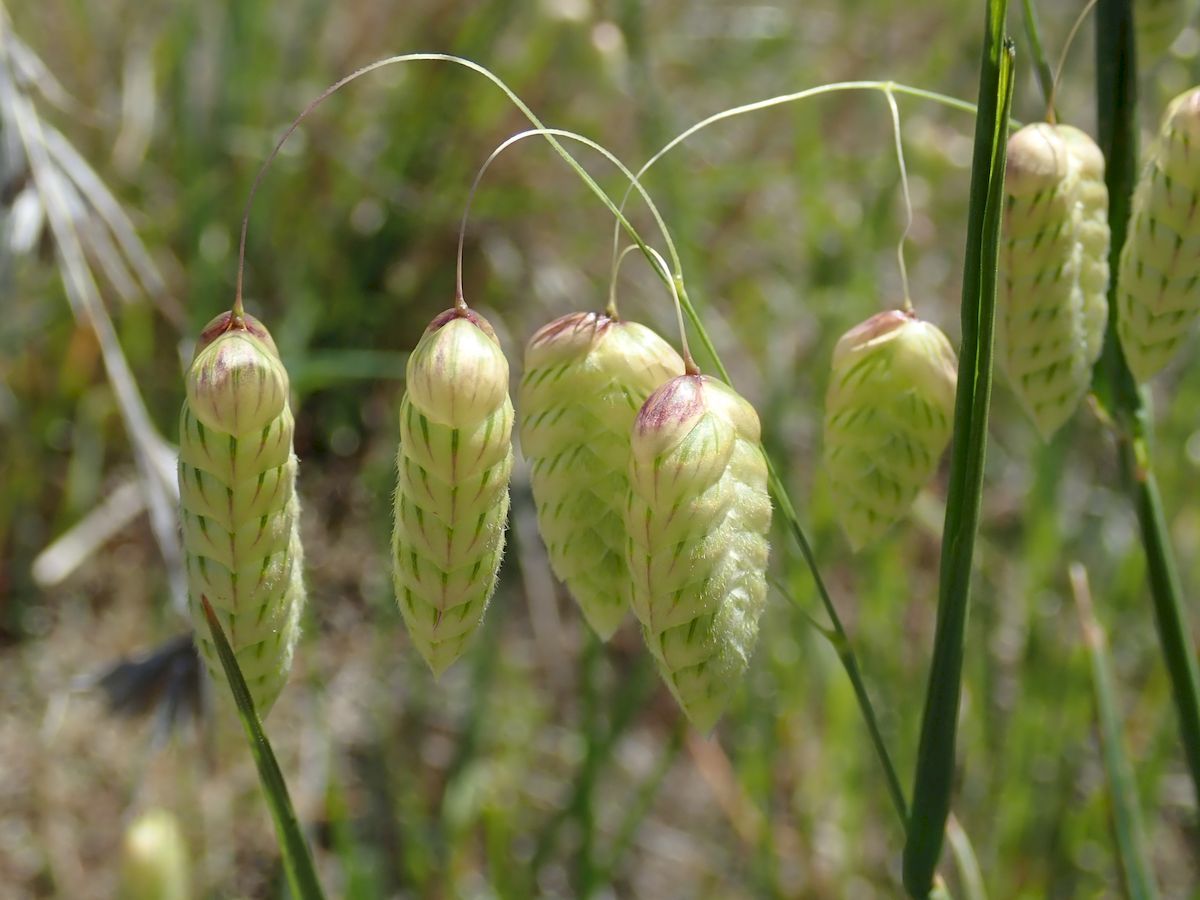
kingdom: Plantae
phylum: Tracheophyta
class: Liliopsida
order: Poales
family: Poaceae
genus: Briza
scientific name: Briza maxima
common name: Big quakinggrass
